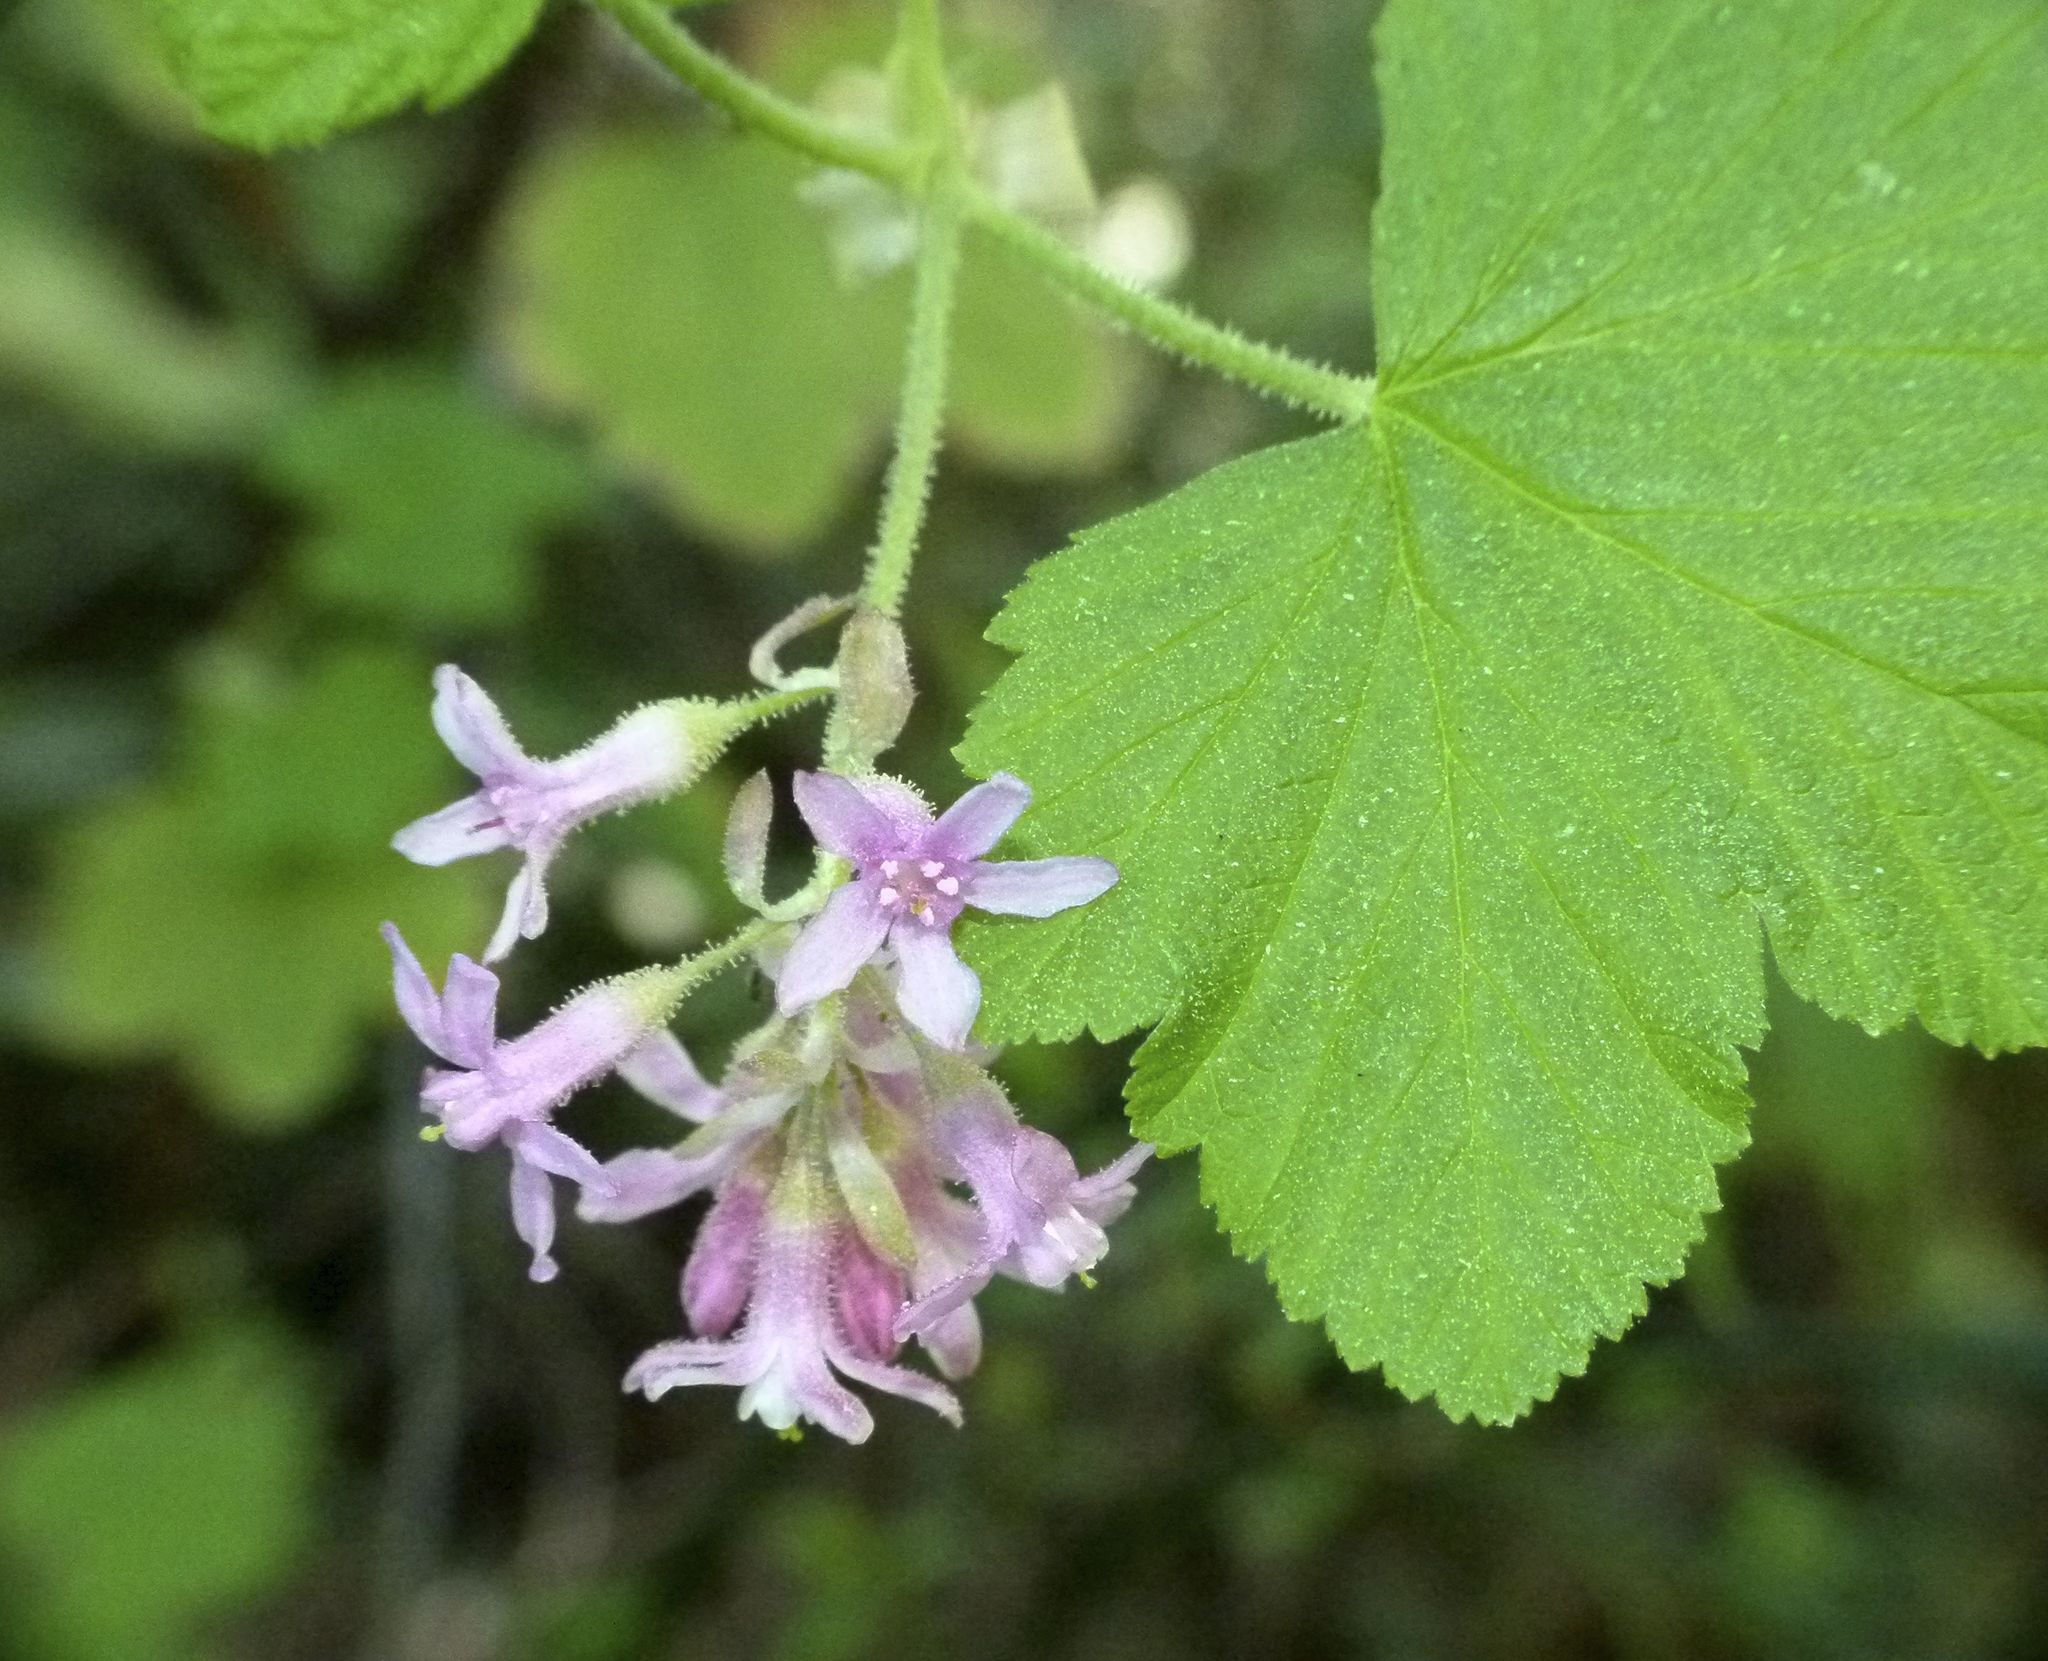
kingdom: Plantae
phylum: Tracheophyta
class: Magnoliopsida
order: Saxifragales
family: Grossulariaceae
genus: Ribes
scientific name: Ribes sanguineum
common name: Flowering currant
